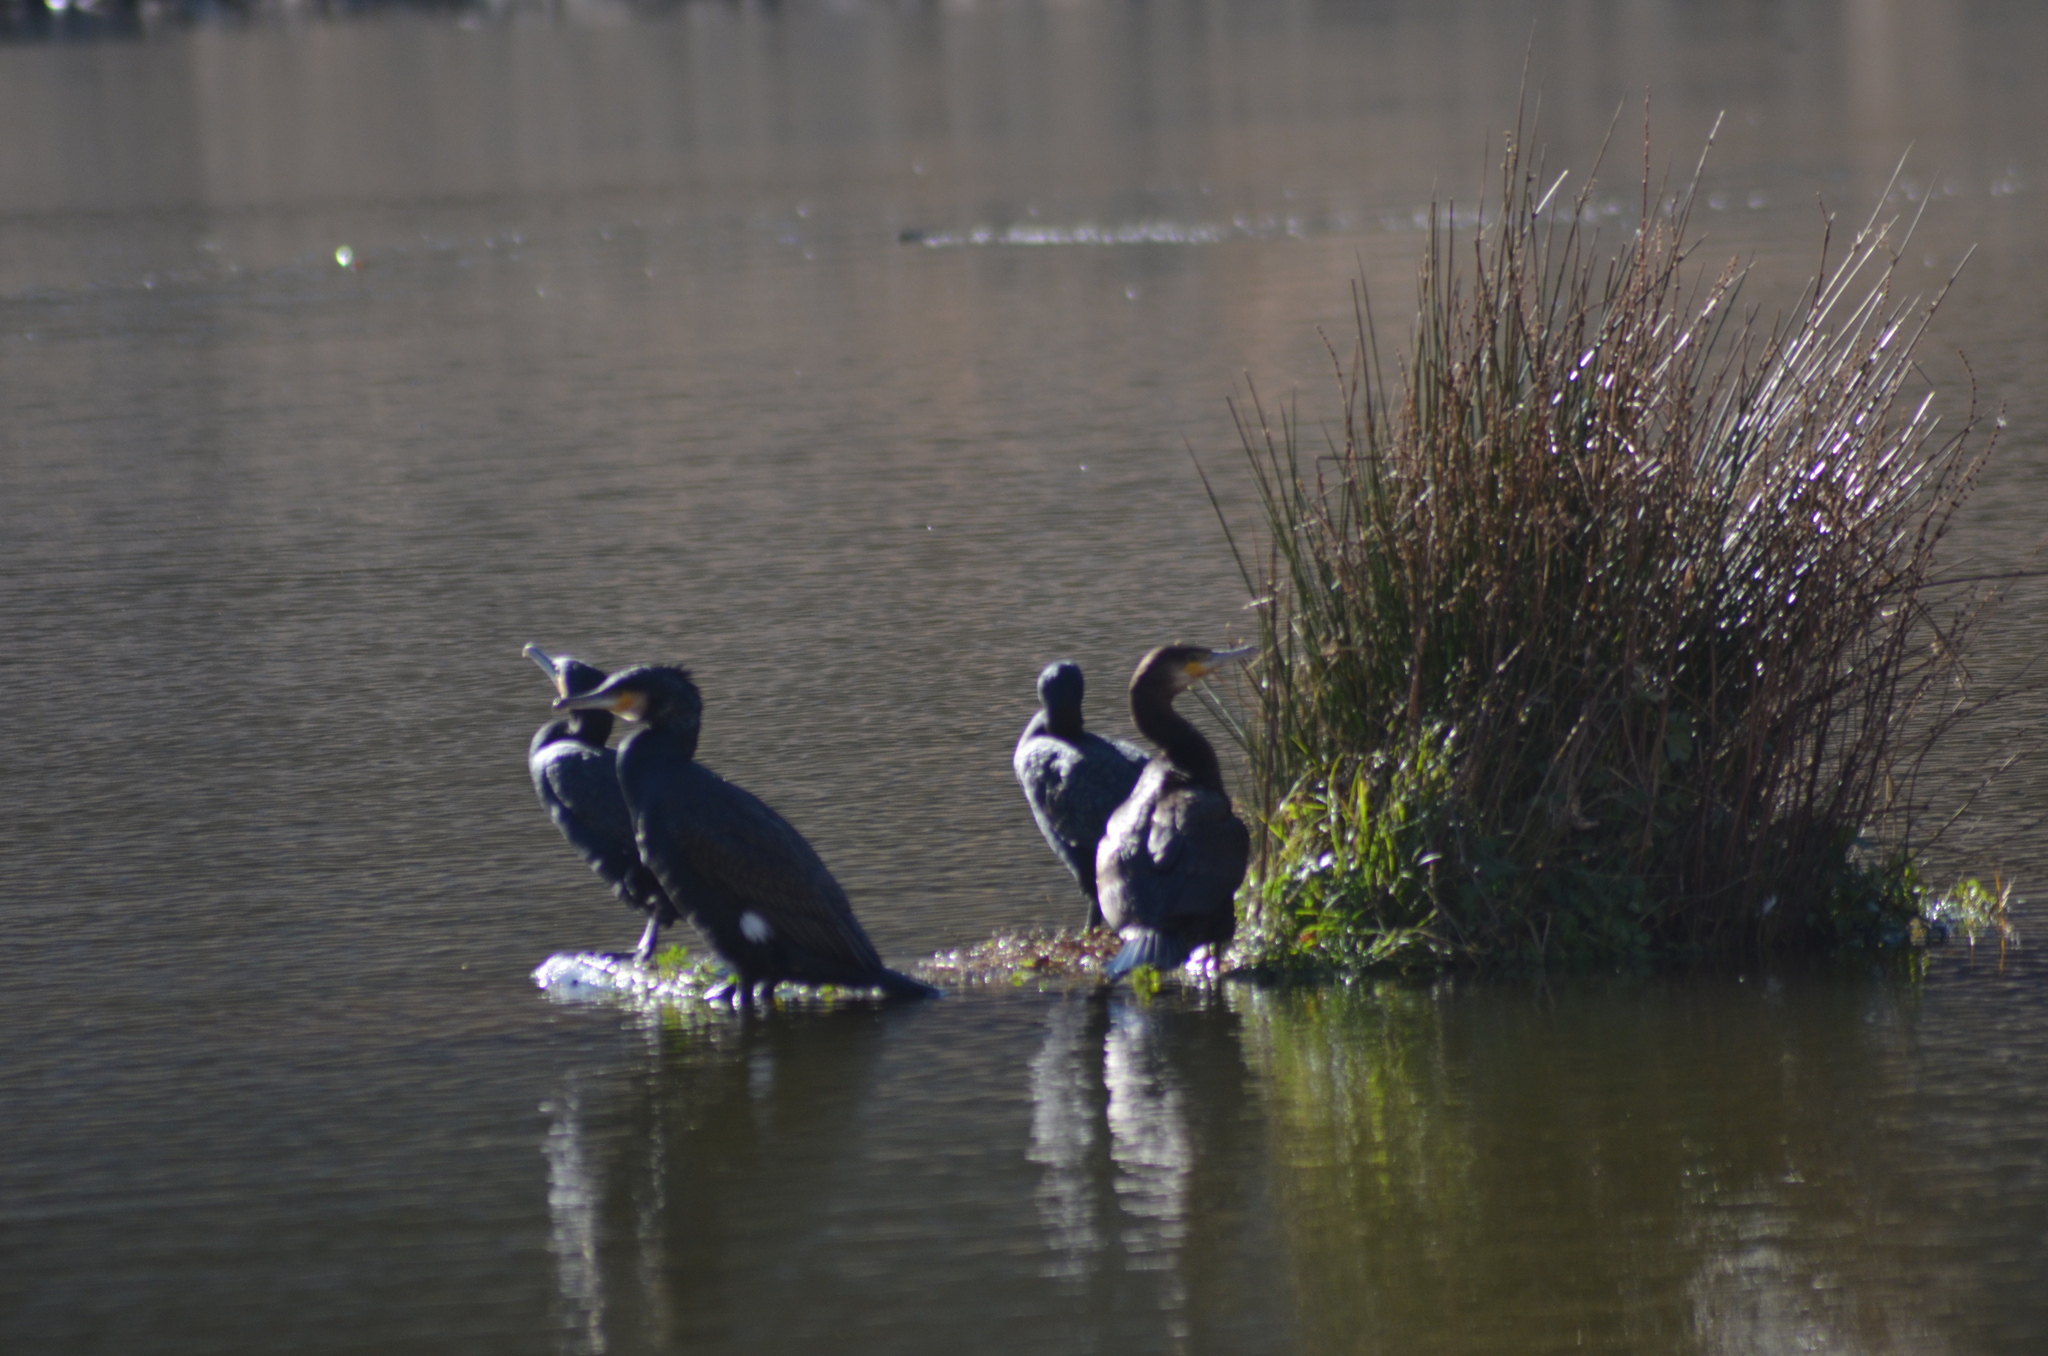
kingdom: Animalia
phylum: Chordata
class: Aves
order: Suliformes
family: Phalacrocoracidae
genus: Phalacrocorax
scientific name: Phalacrocorax carbo
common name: Great cormorant
